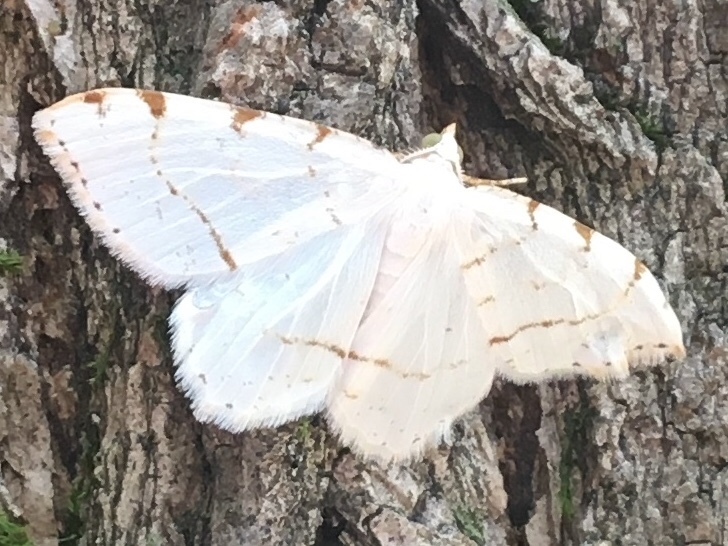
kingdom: Animalia
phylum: Arthropoda
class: Insecta
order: Lepidoptera
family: Geometridae
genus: Macaria
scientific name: Macaria pustularia
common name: Lesser maple spanworm moth
